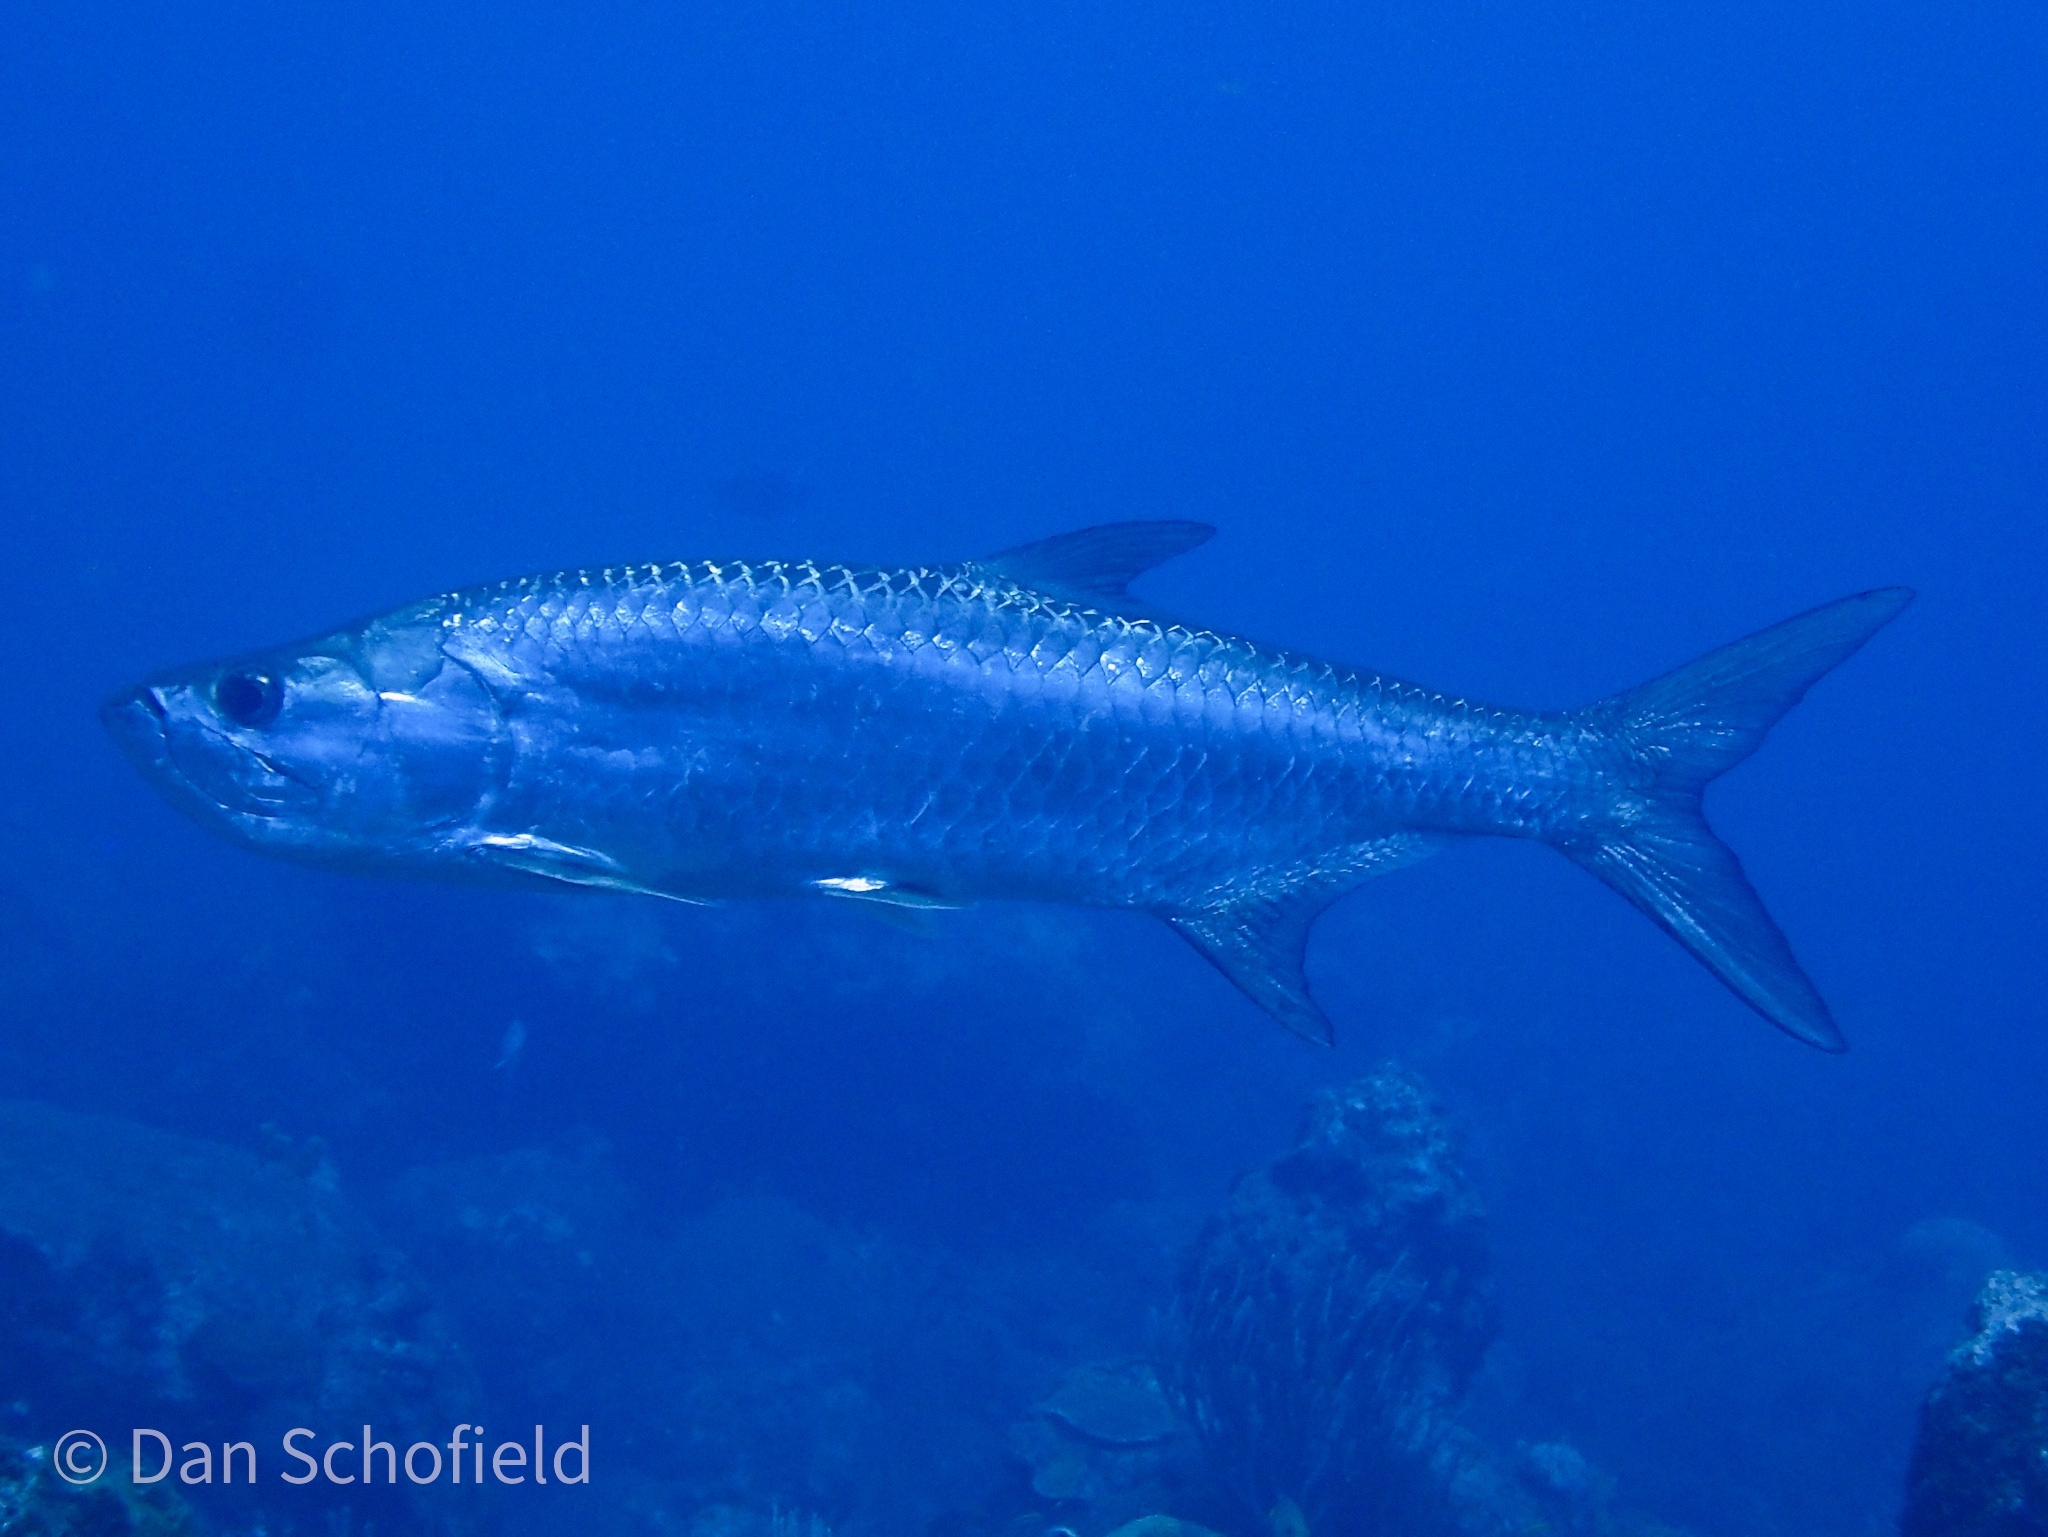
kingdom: Animalia
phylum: Chordata
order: Elopiformes
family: Megalopidae
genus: Megalops
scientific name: Megalops atlanticus
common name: Tarpon
